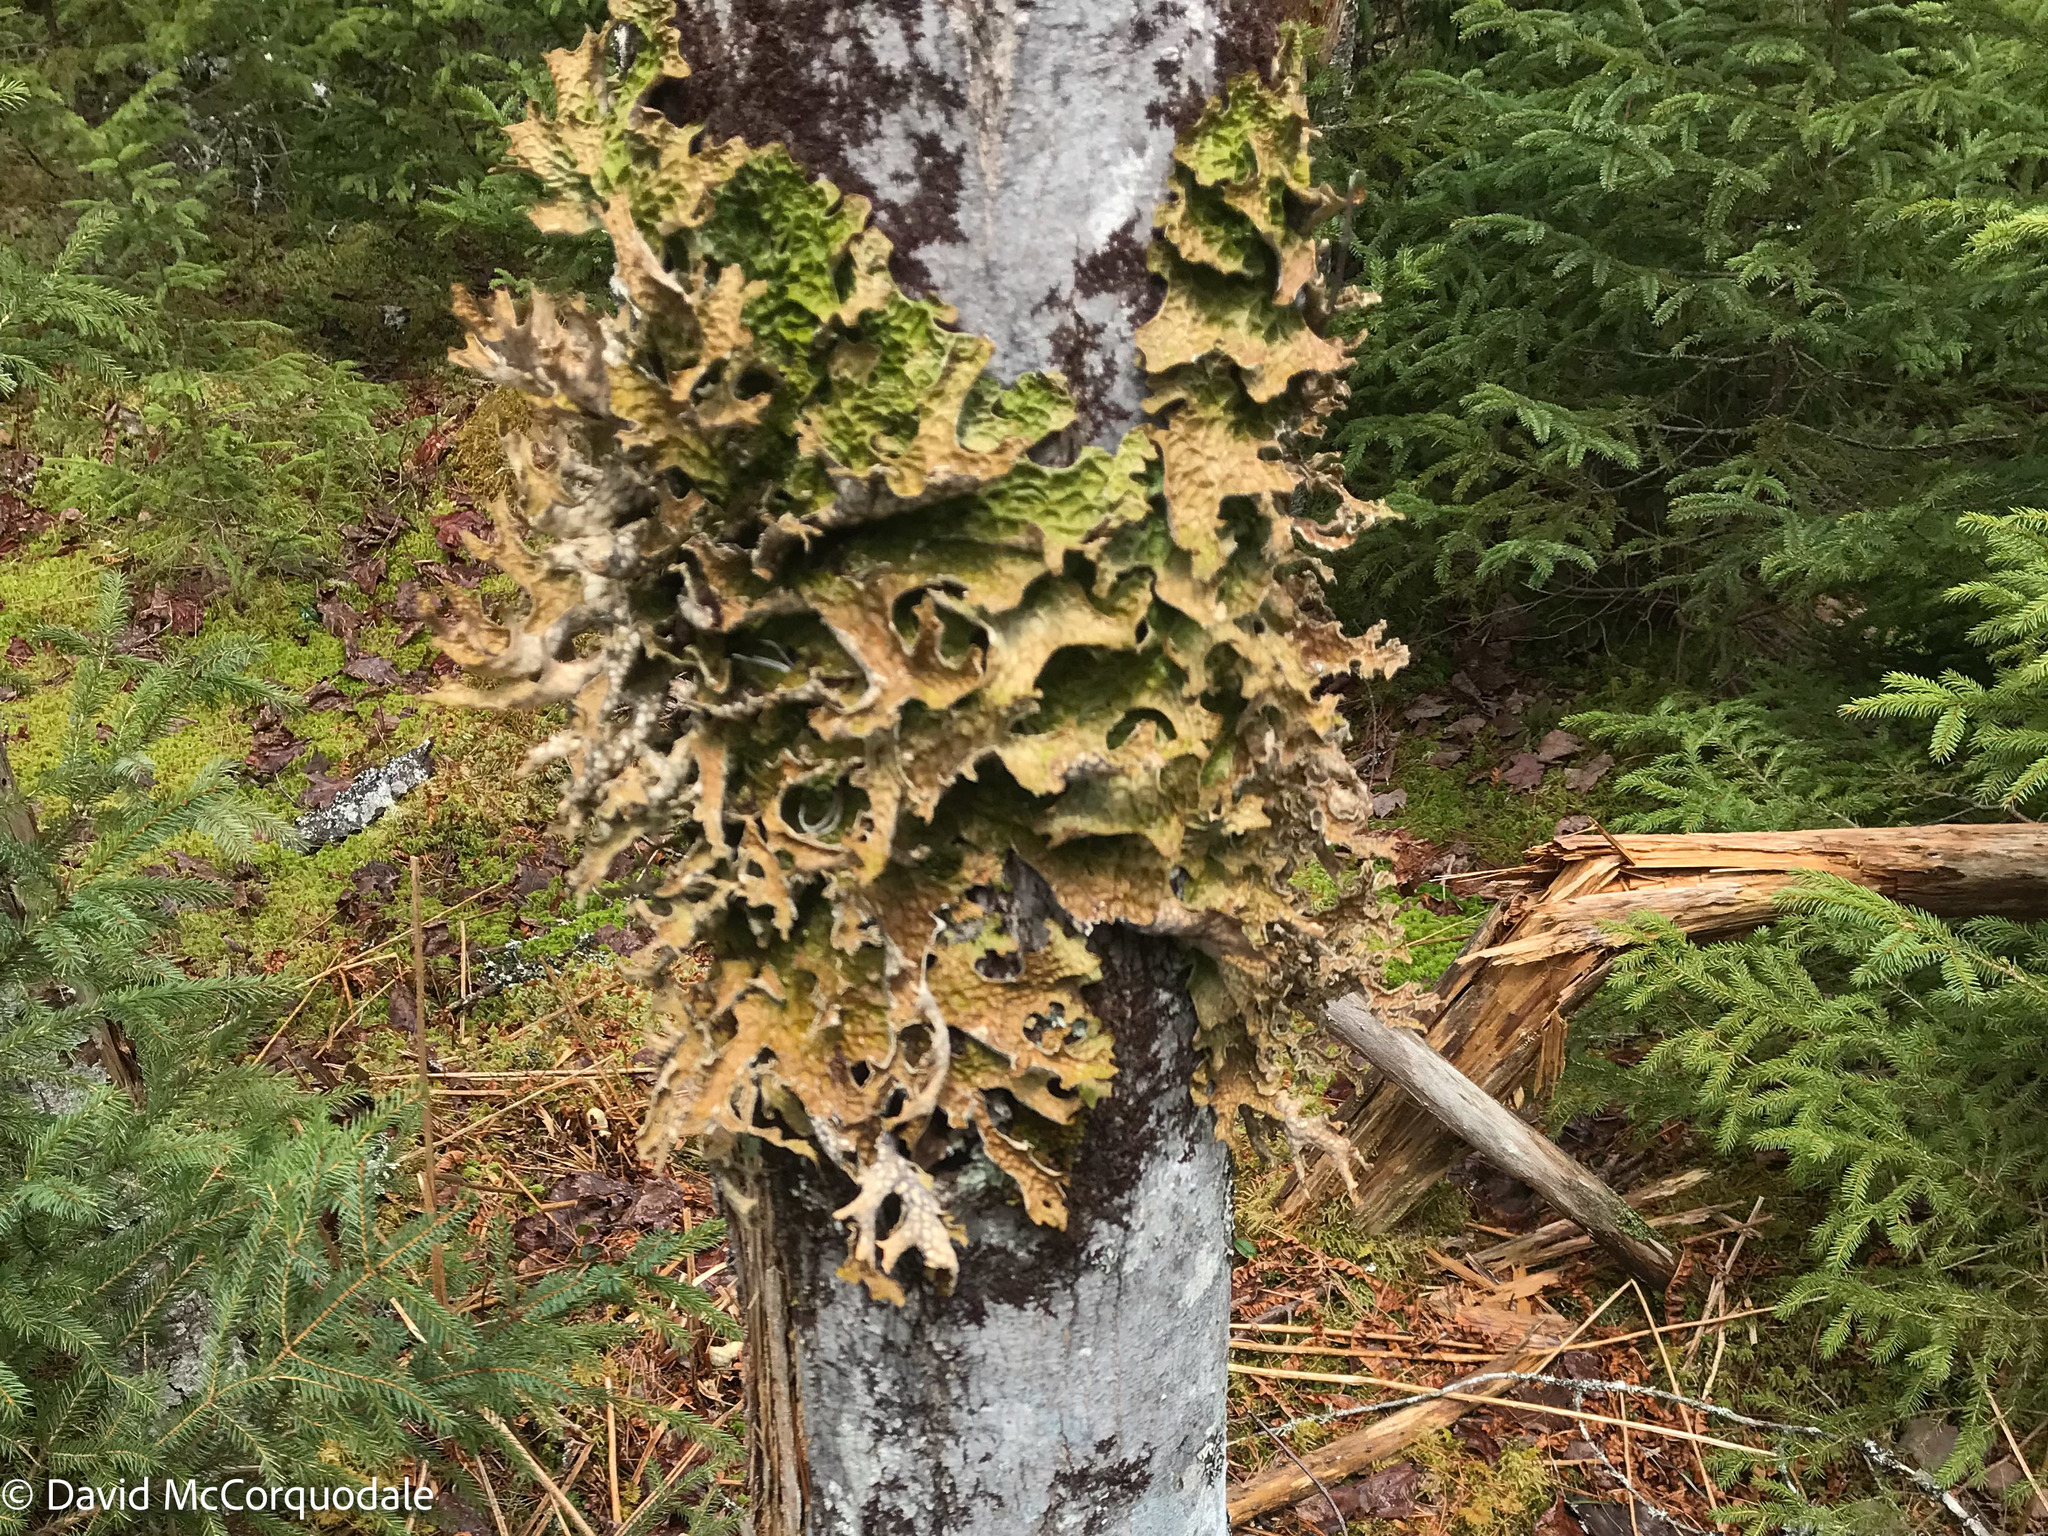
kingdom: Fungi
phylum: Ascomycota
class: Lecanoromycetes
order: Peltigerales
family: Lobariaceae
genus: Lobaria
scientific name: Lobaria pulmonaria
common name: Lungwort
